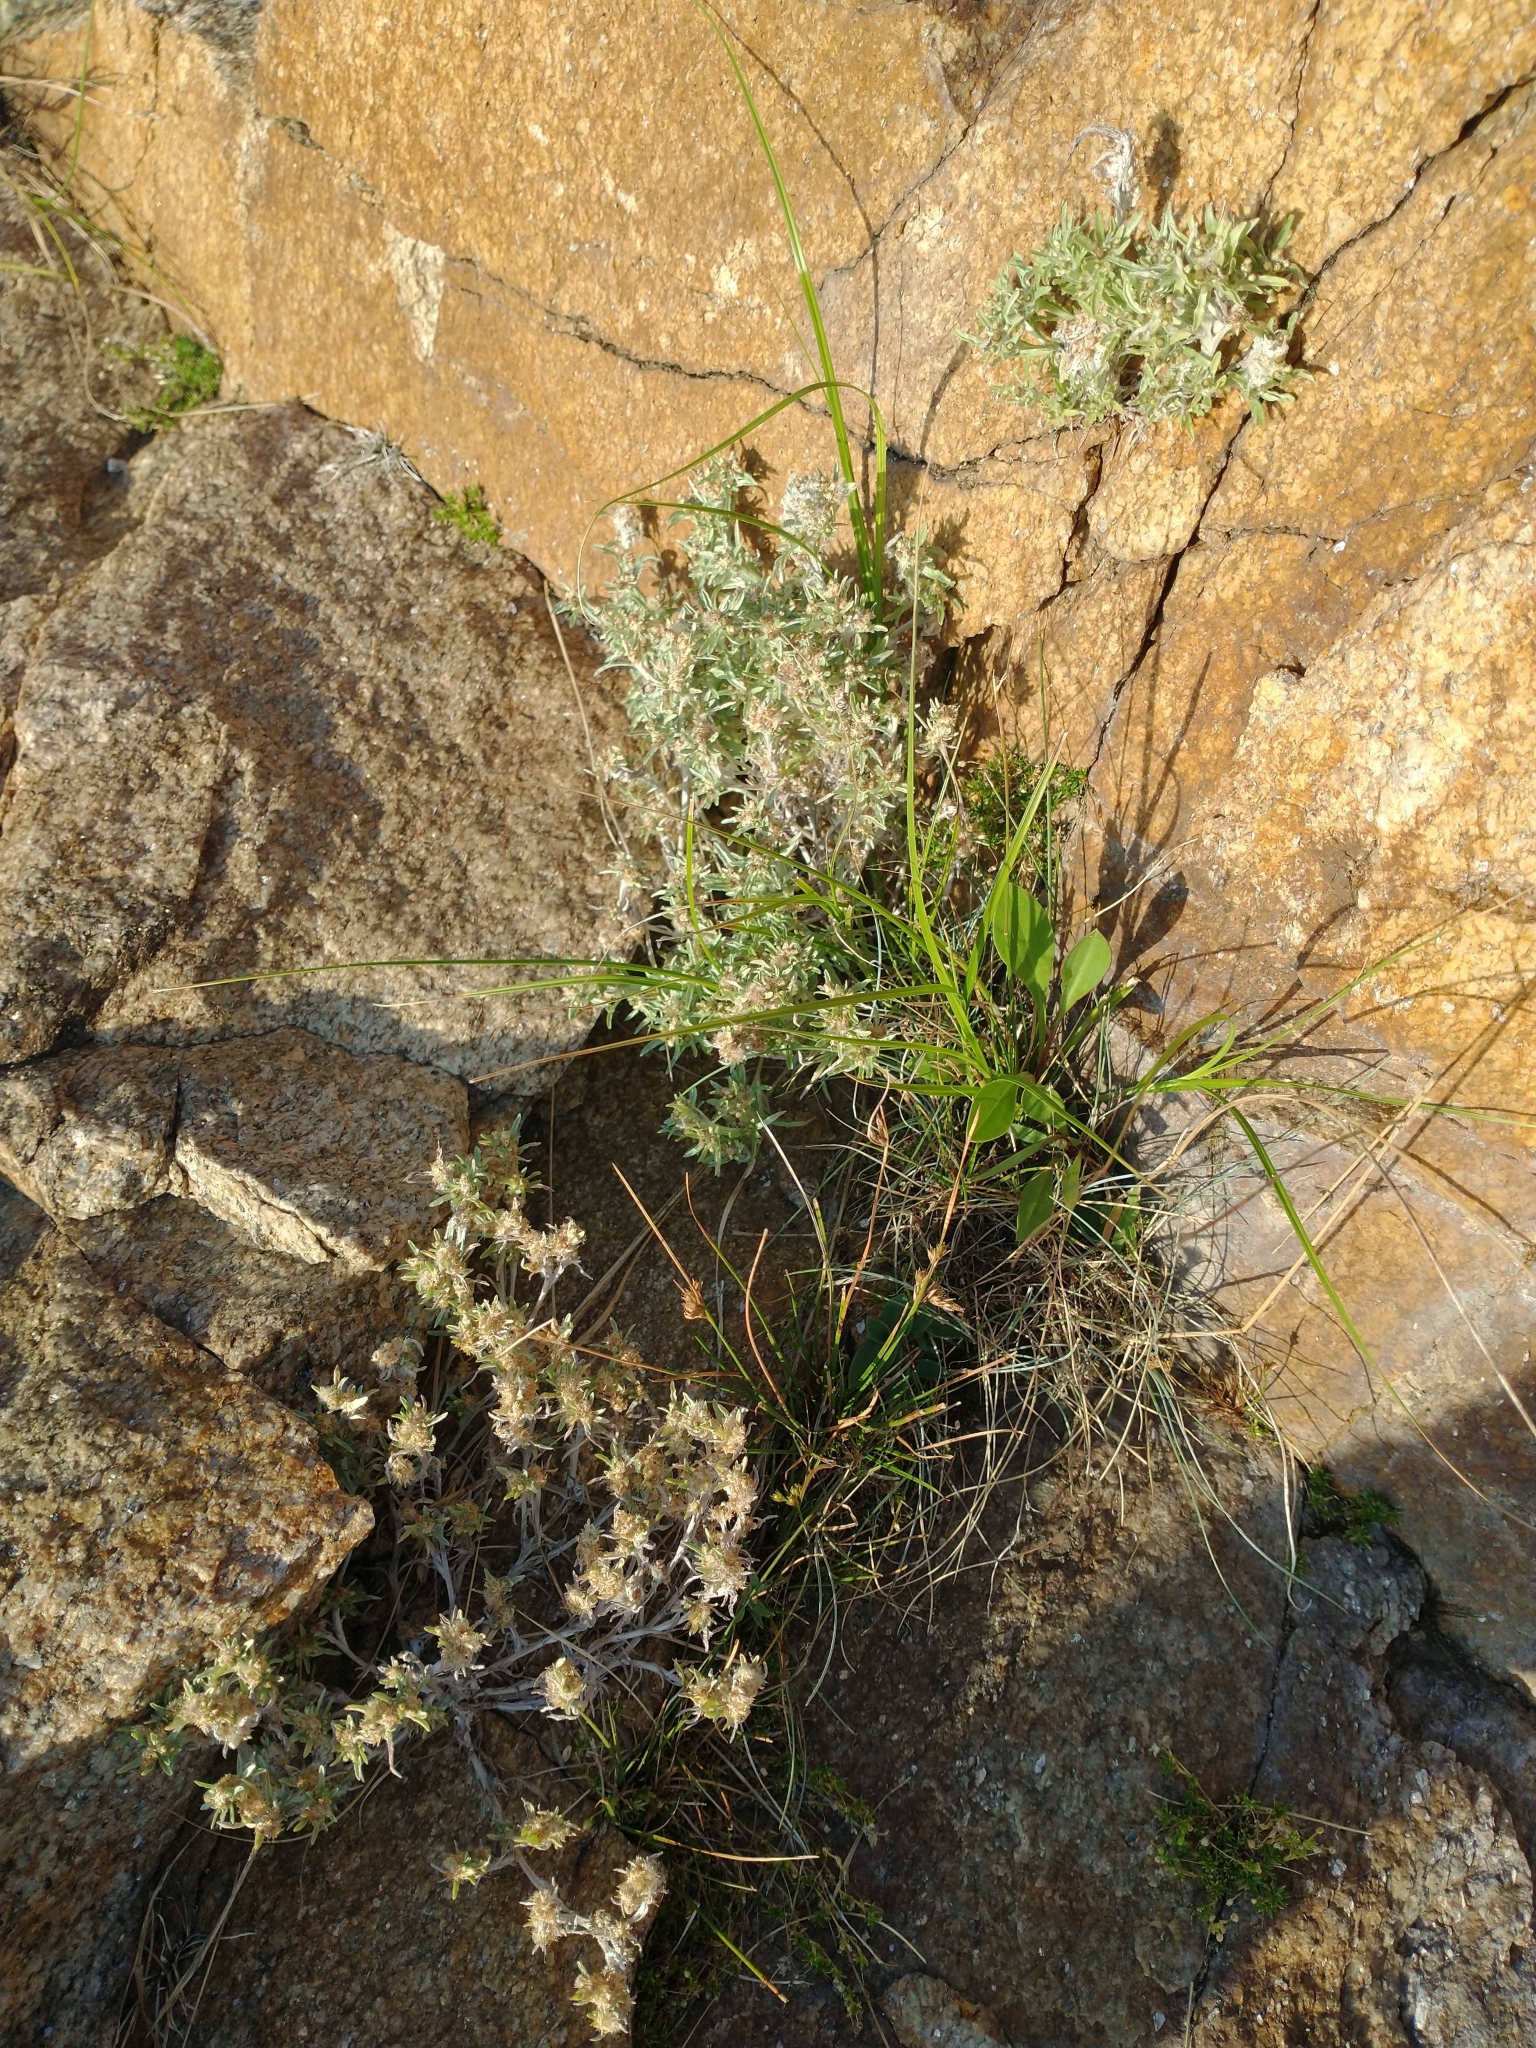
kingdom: Plantae
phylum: Tracheophyta
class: Magnoliopsida
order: Asterales
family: Asteraceae
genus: Gnaphalium
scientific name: Gnaphalium uliginosum
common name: Marsh cudweed
